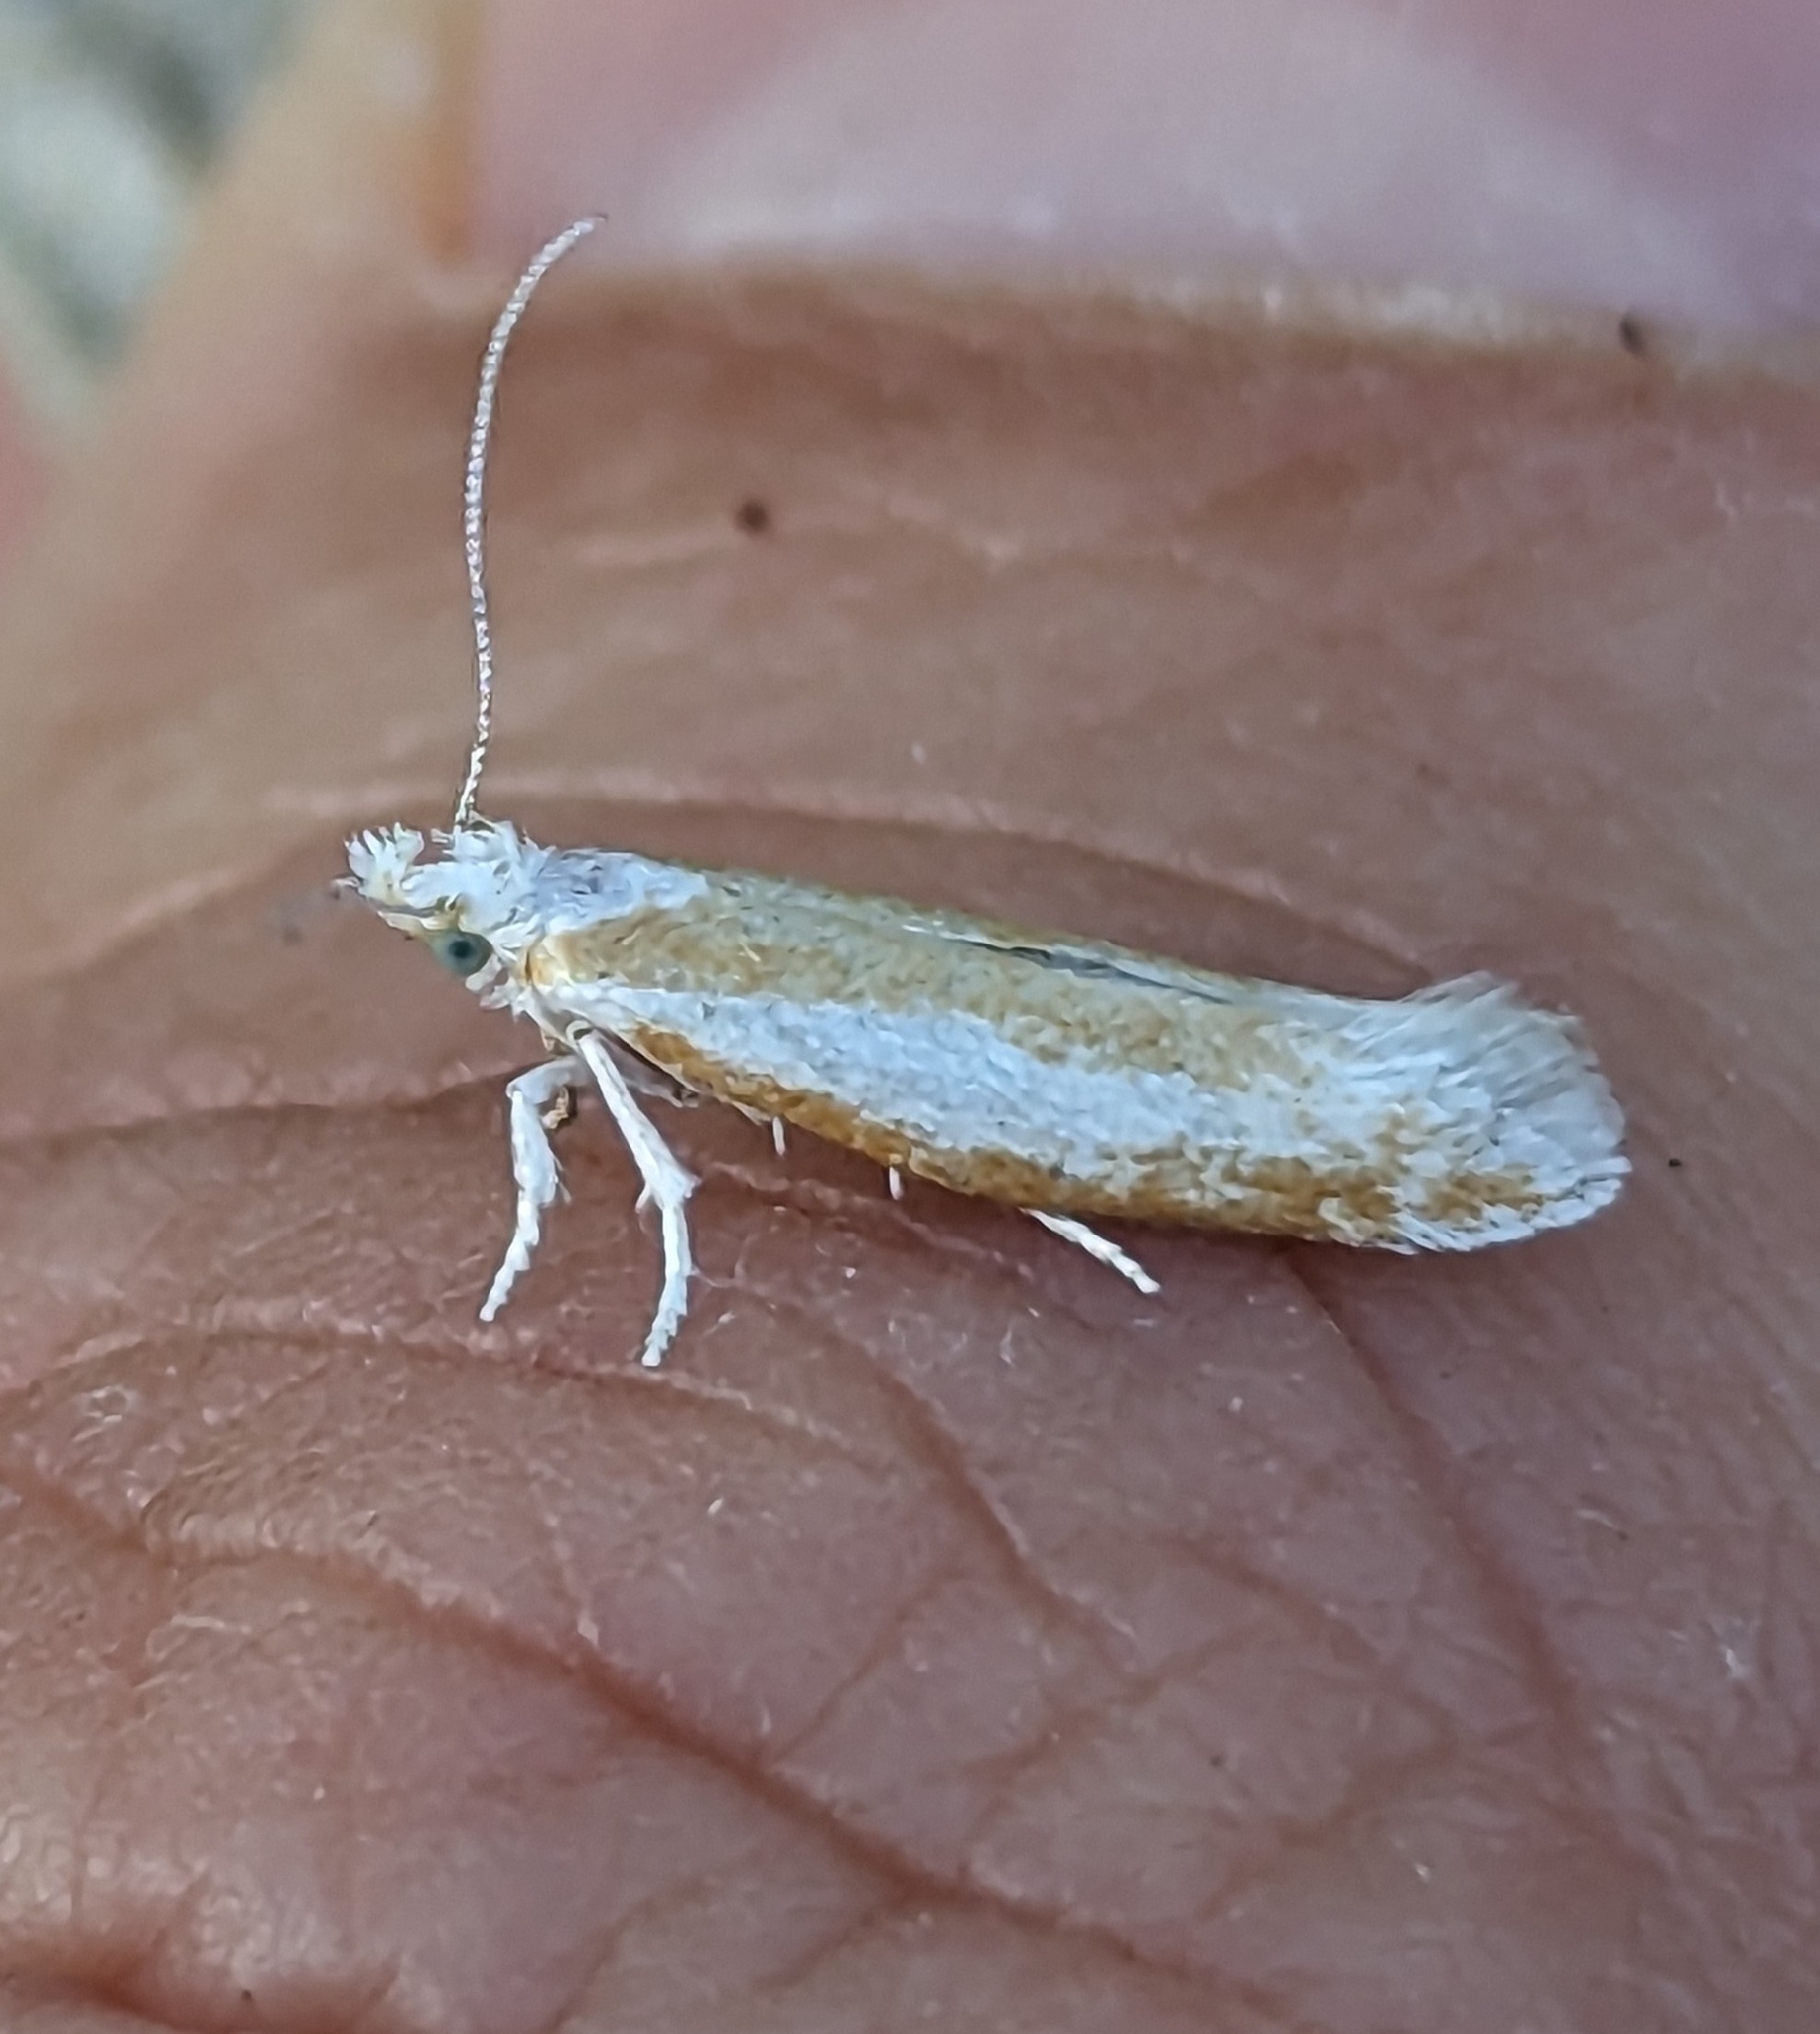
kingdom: Animalia
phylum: Arthropoda
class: Insecta
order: Lepidoptera
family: Yponomeutidae
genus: Zelleria
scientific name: Zelleria haimbachi
